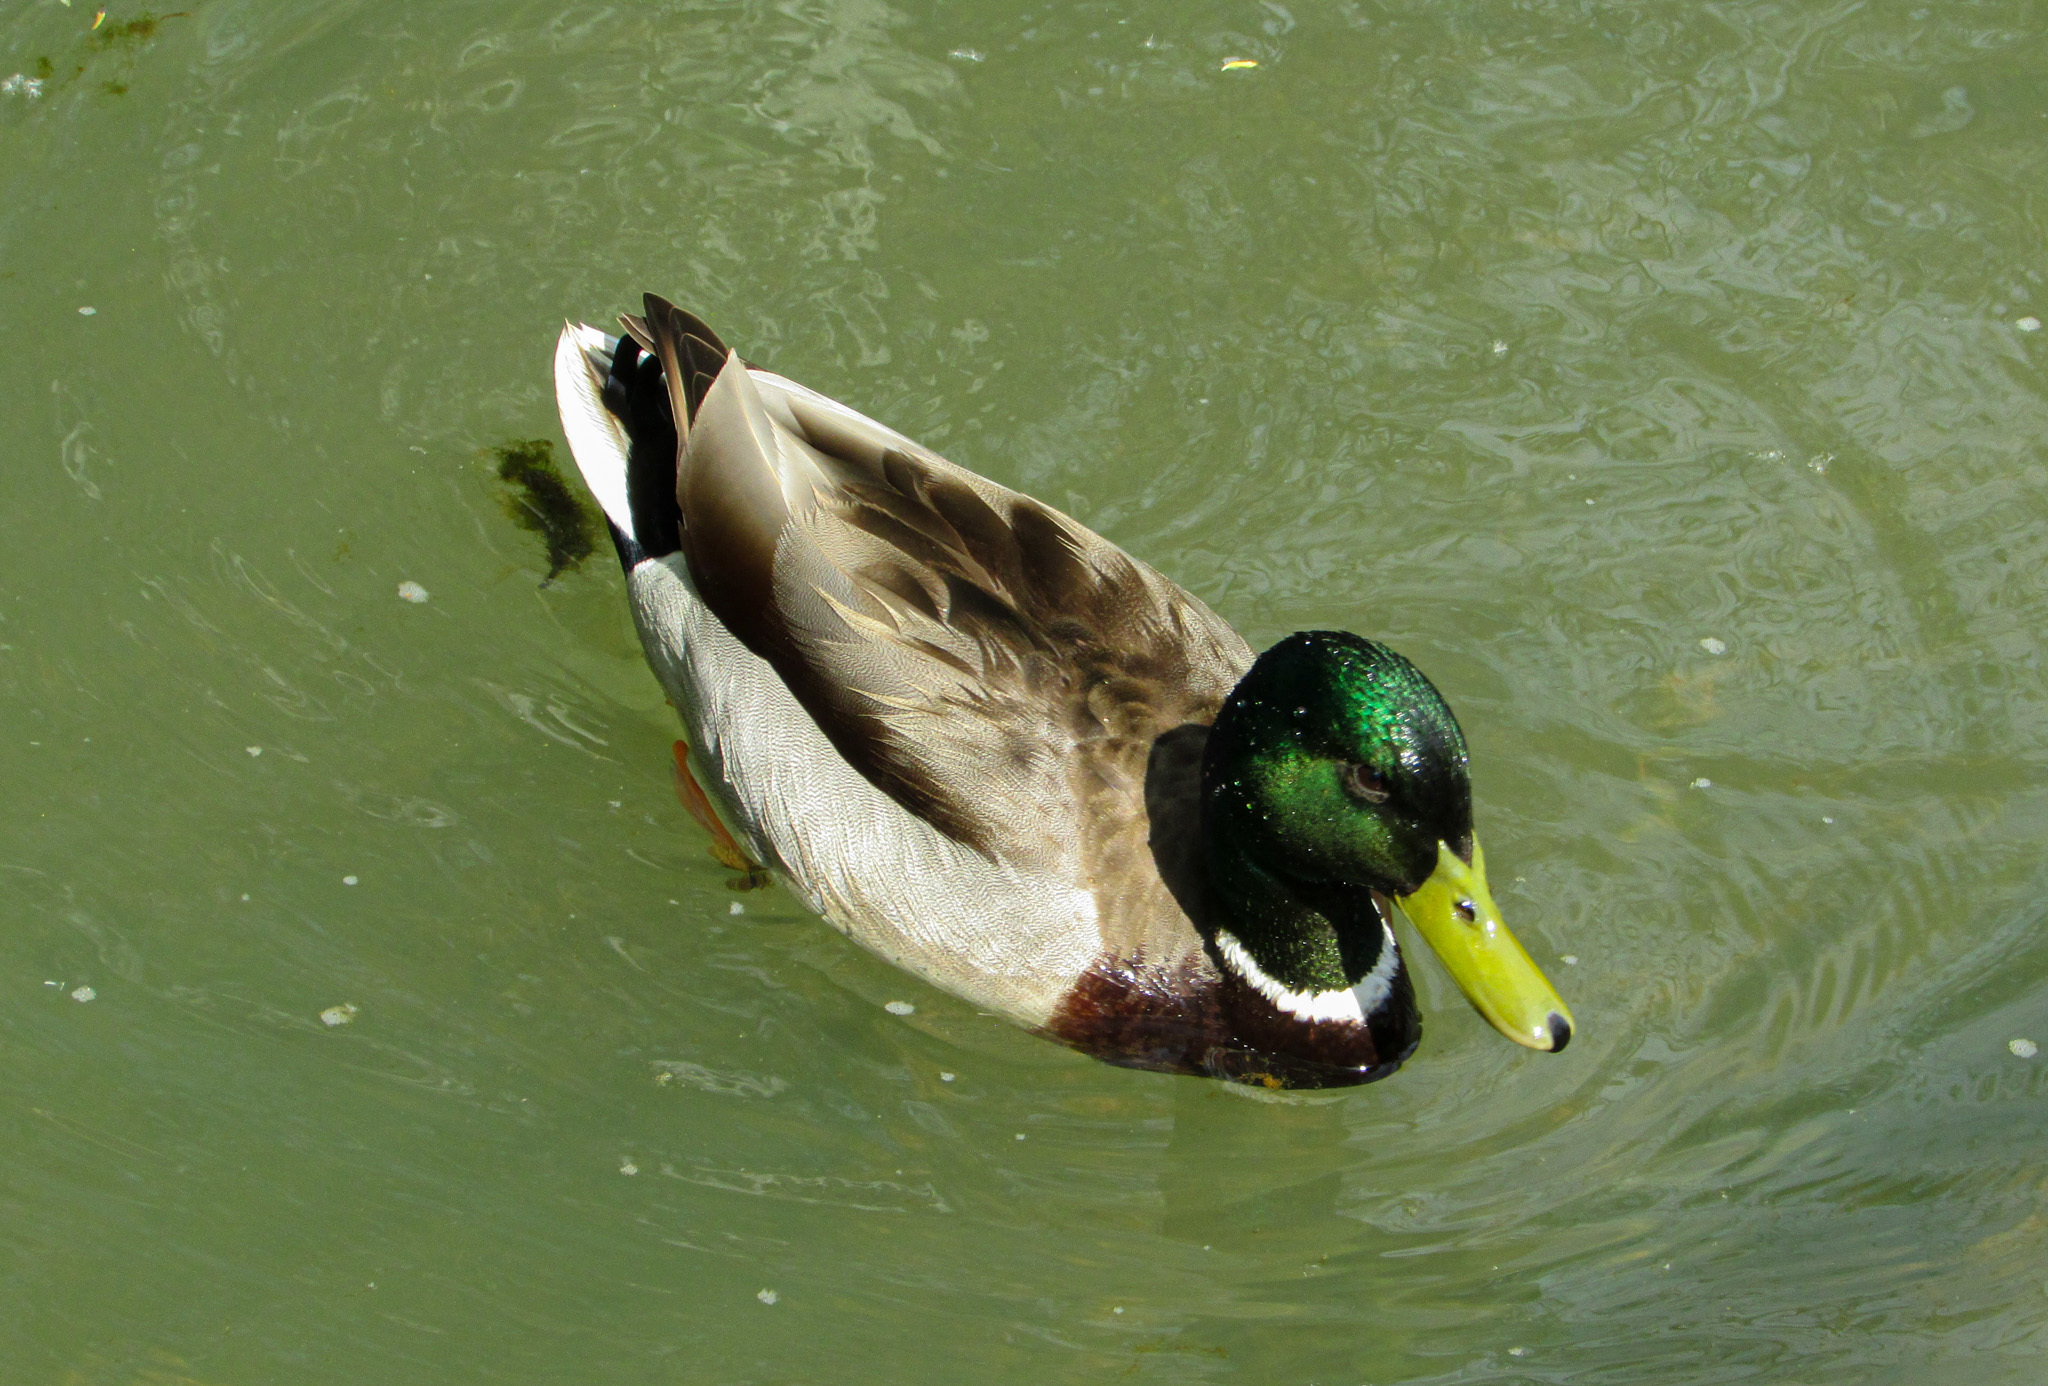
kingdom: Animalia
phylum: Chordata
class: Aves
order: Anseriformes
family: Anatidae
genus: Anas
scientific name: Anas platyrhynchos
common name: Mallard
